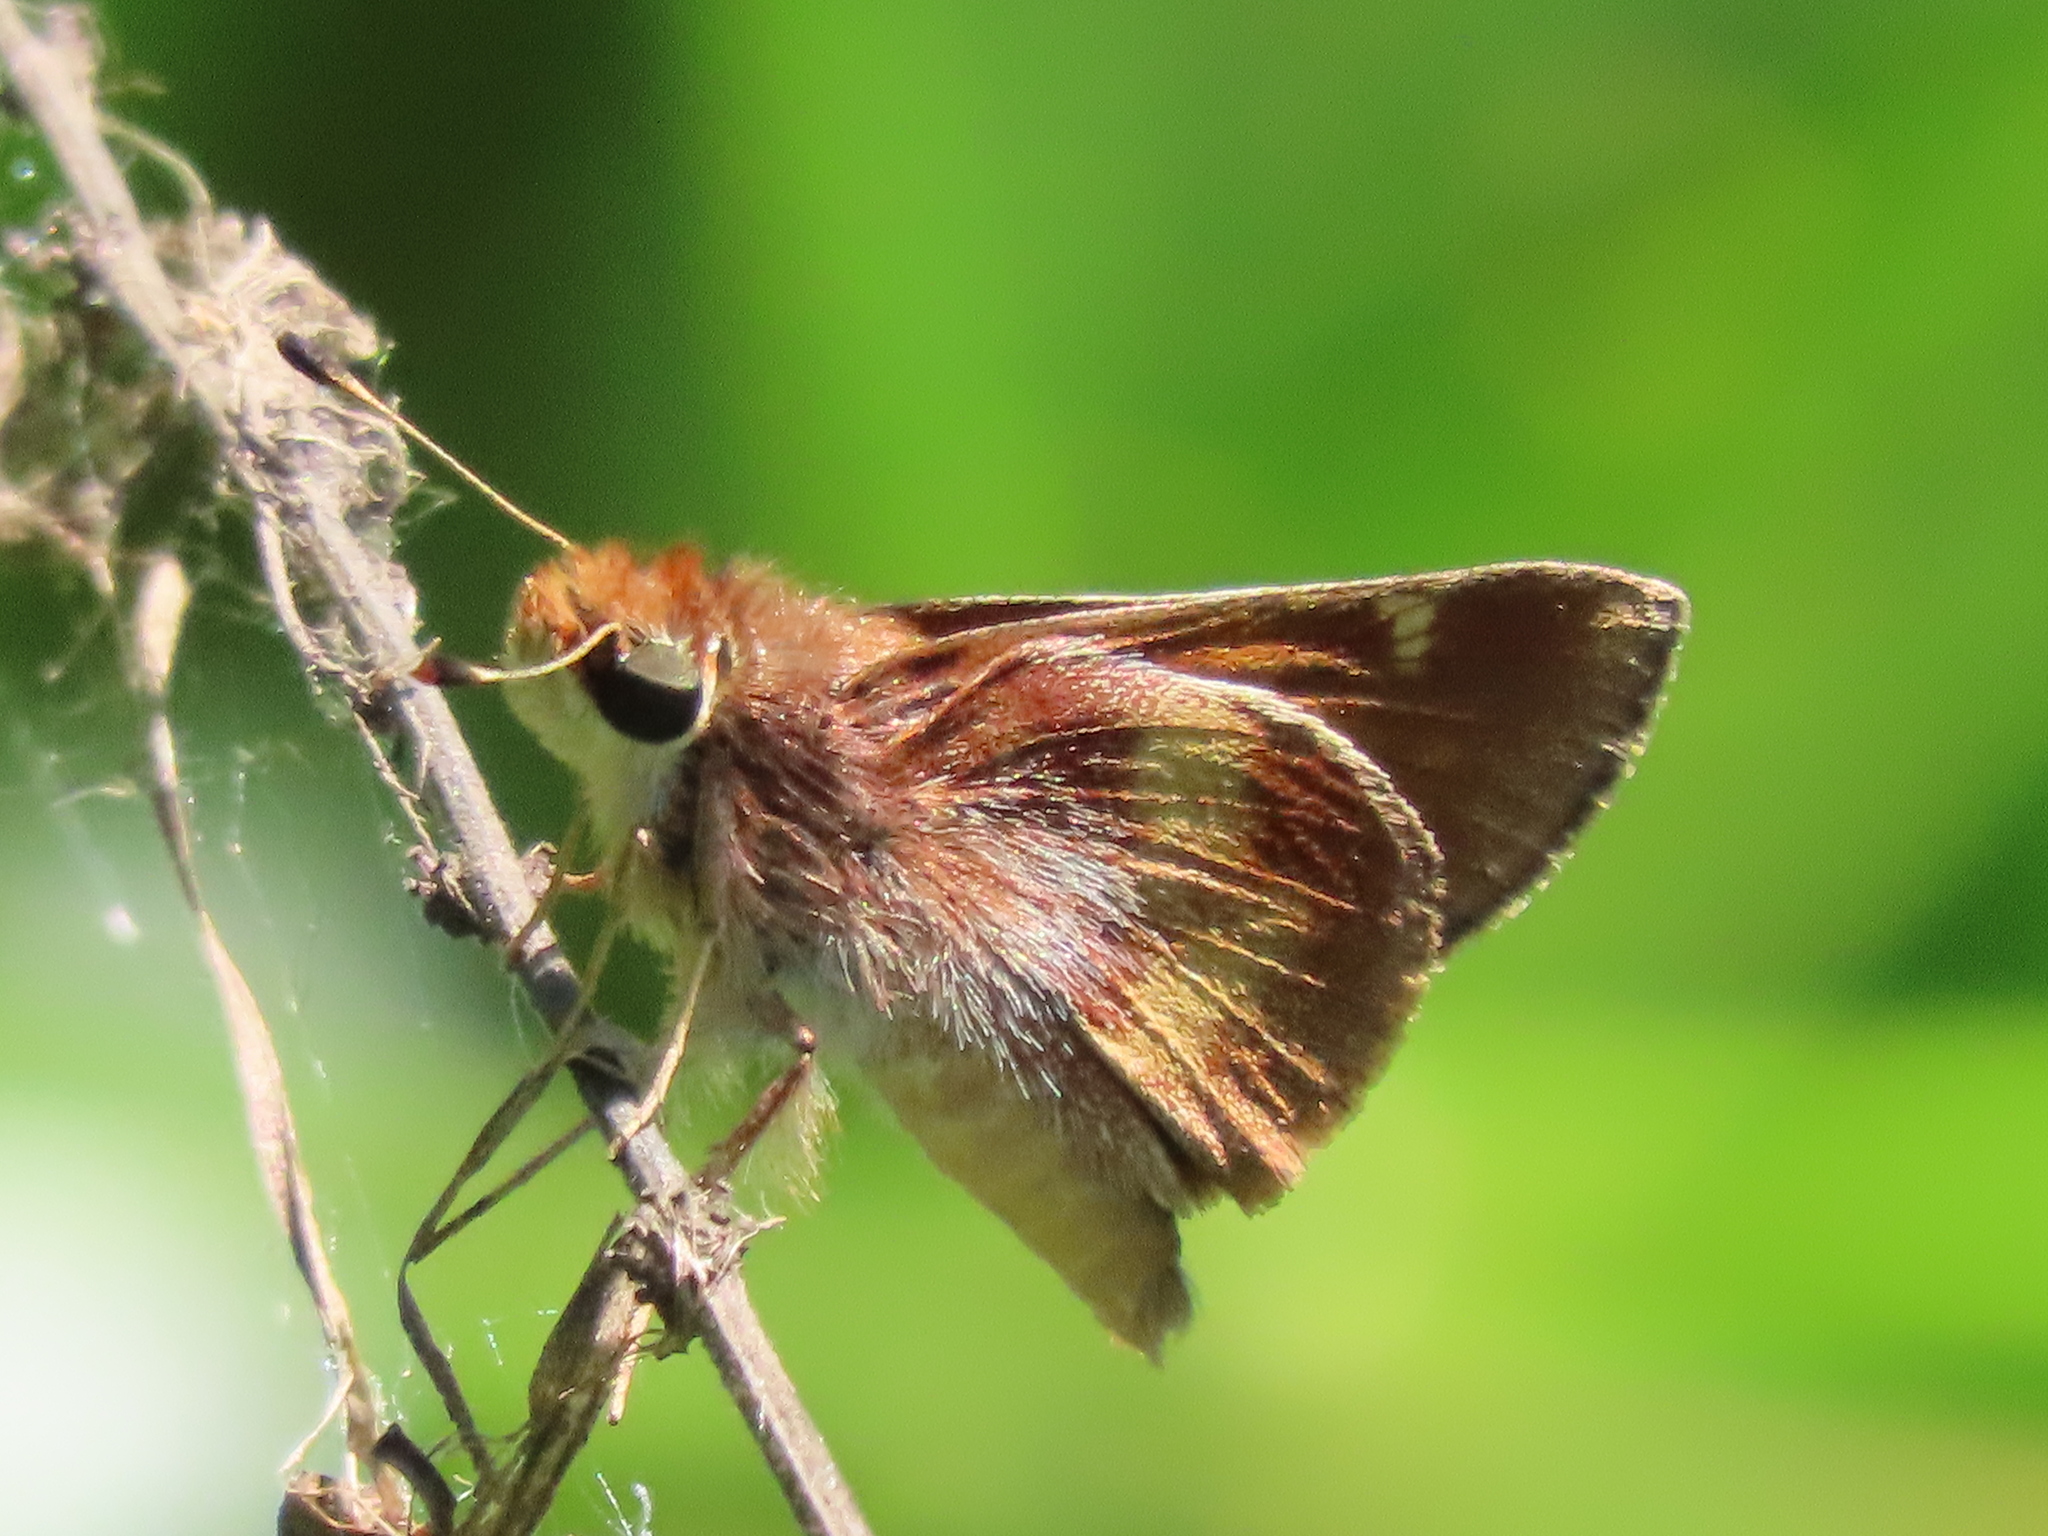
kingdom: Animalia
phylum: Arthropoda
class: Insecta
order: Lepidoptera
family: Hesperiidae
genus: Lon
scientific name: Lon melane
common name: Umber skipper
